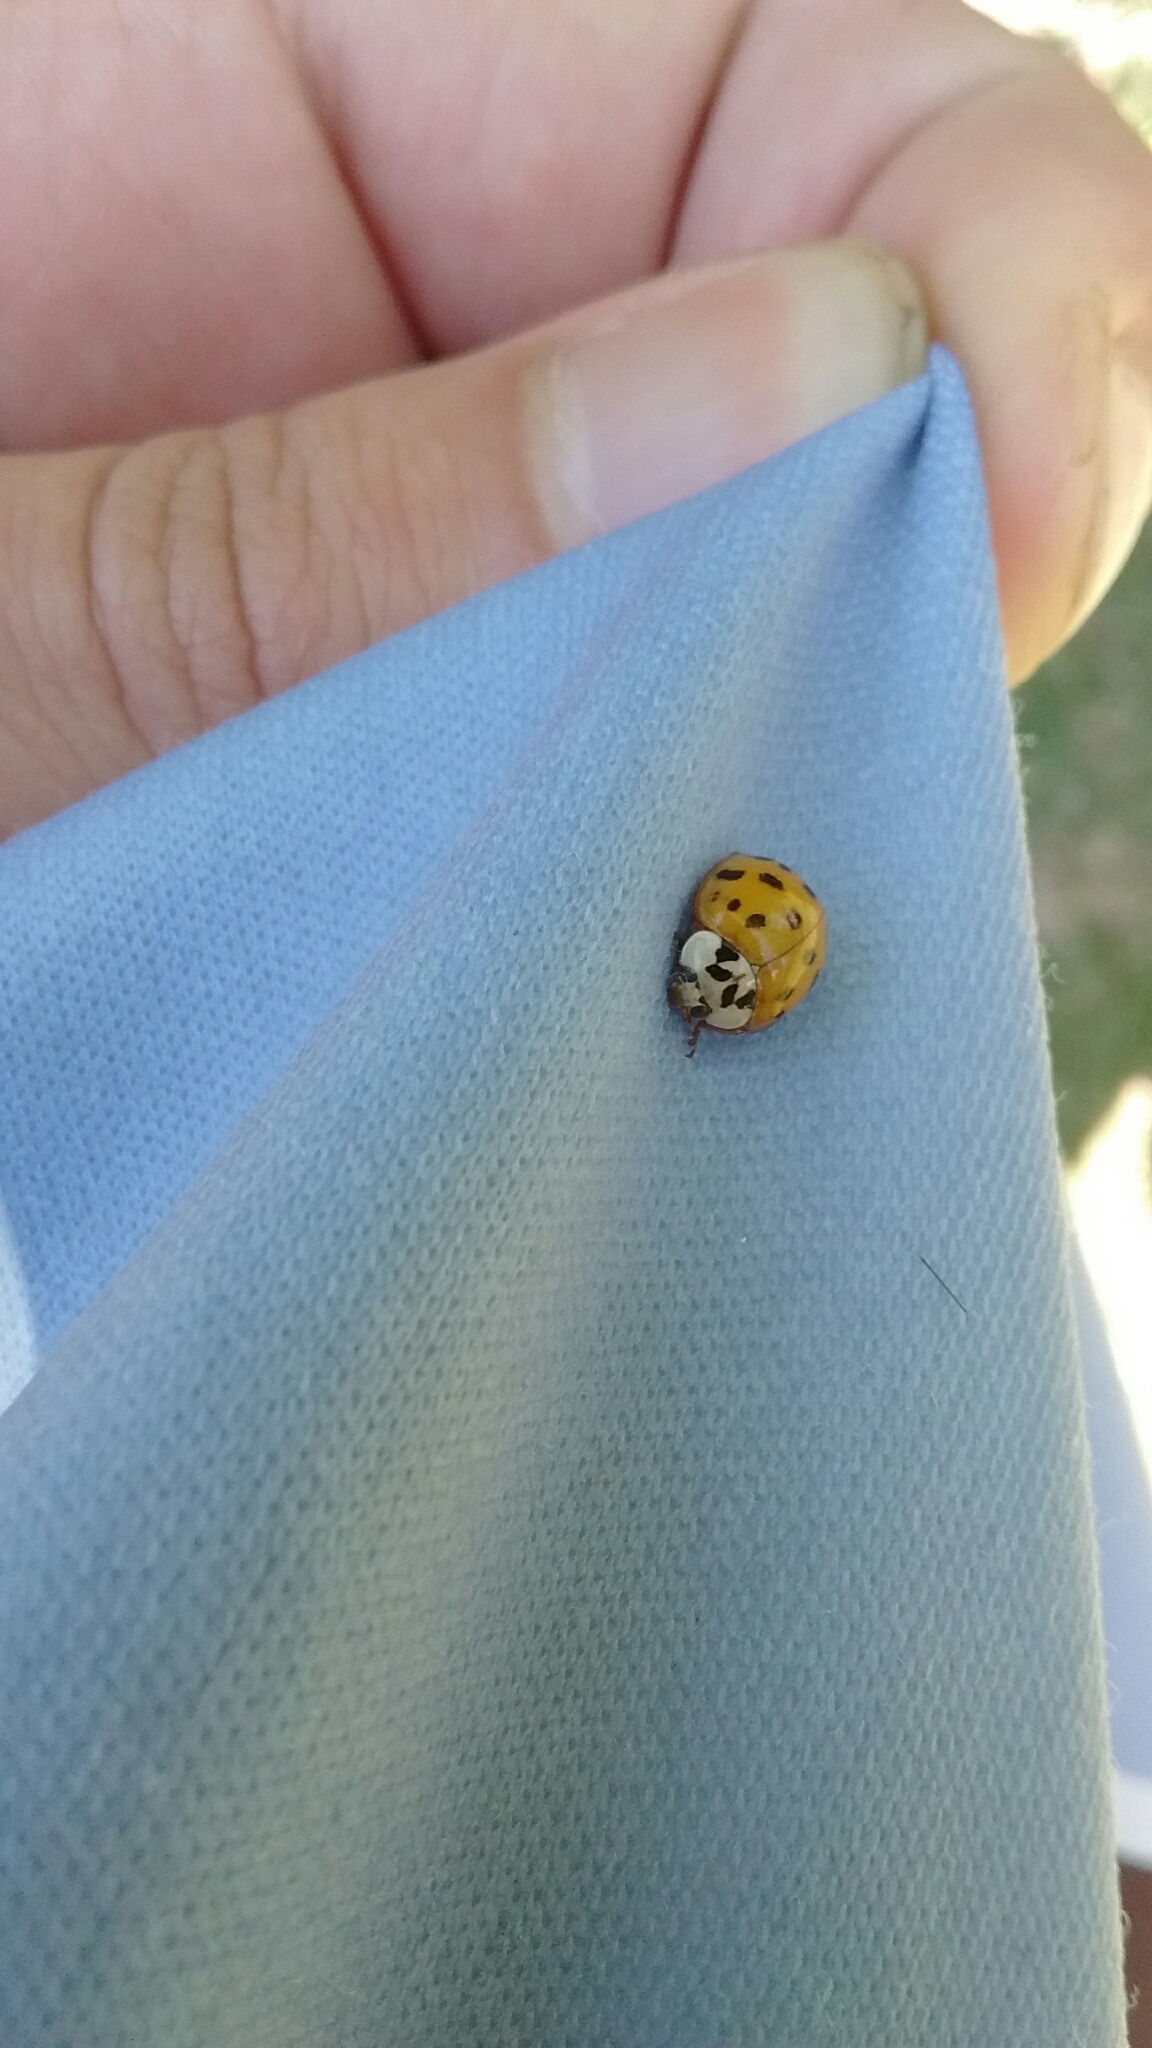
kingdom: Animalia
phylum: Arthropoda
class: Insecta
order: Coleoptera
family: Coccinellidae
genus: Harmonia
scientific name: Harmonia axyridis
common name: Harlequin ladybird
